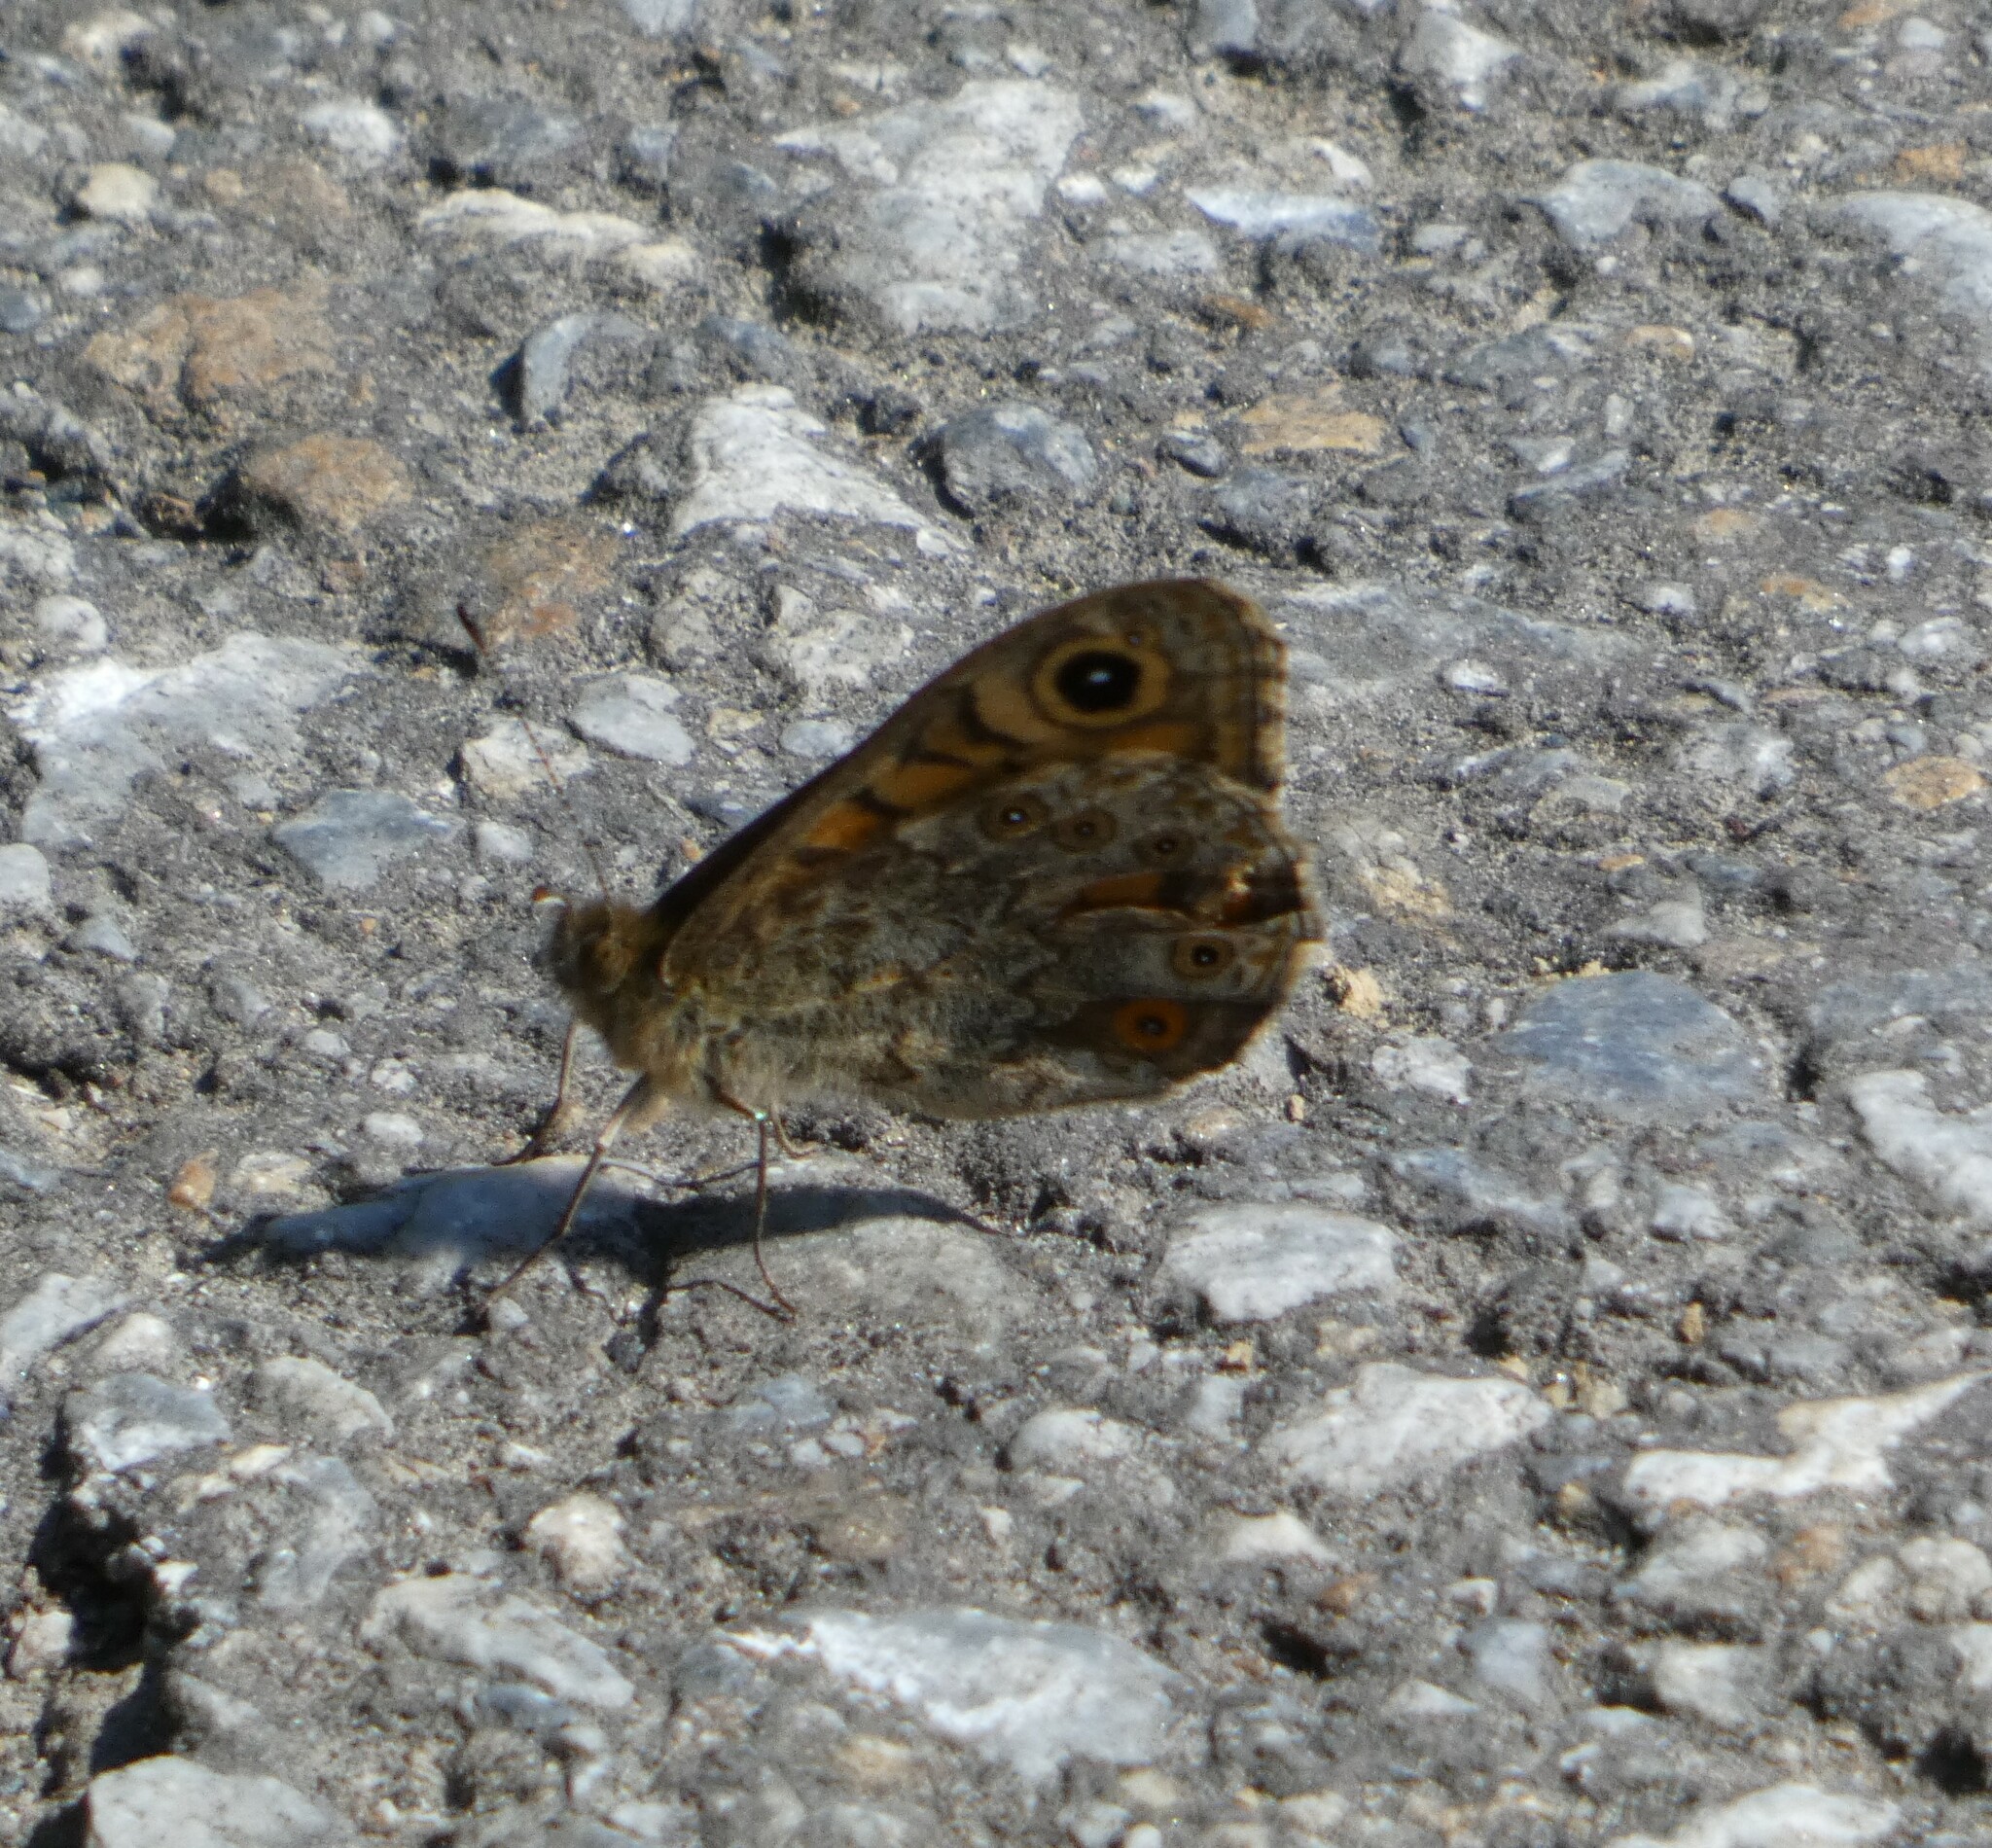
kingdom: Animalia
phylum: Arthropoda
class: Insecta
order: Lepidoptera
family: Nymphalidae
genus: Pararge
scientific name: Pararge Lasiommata megera
